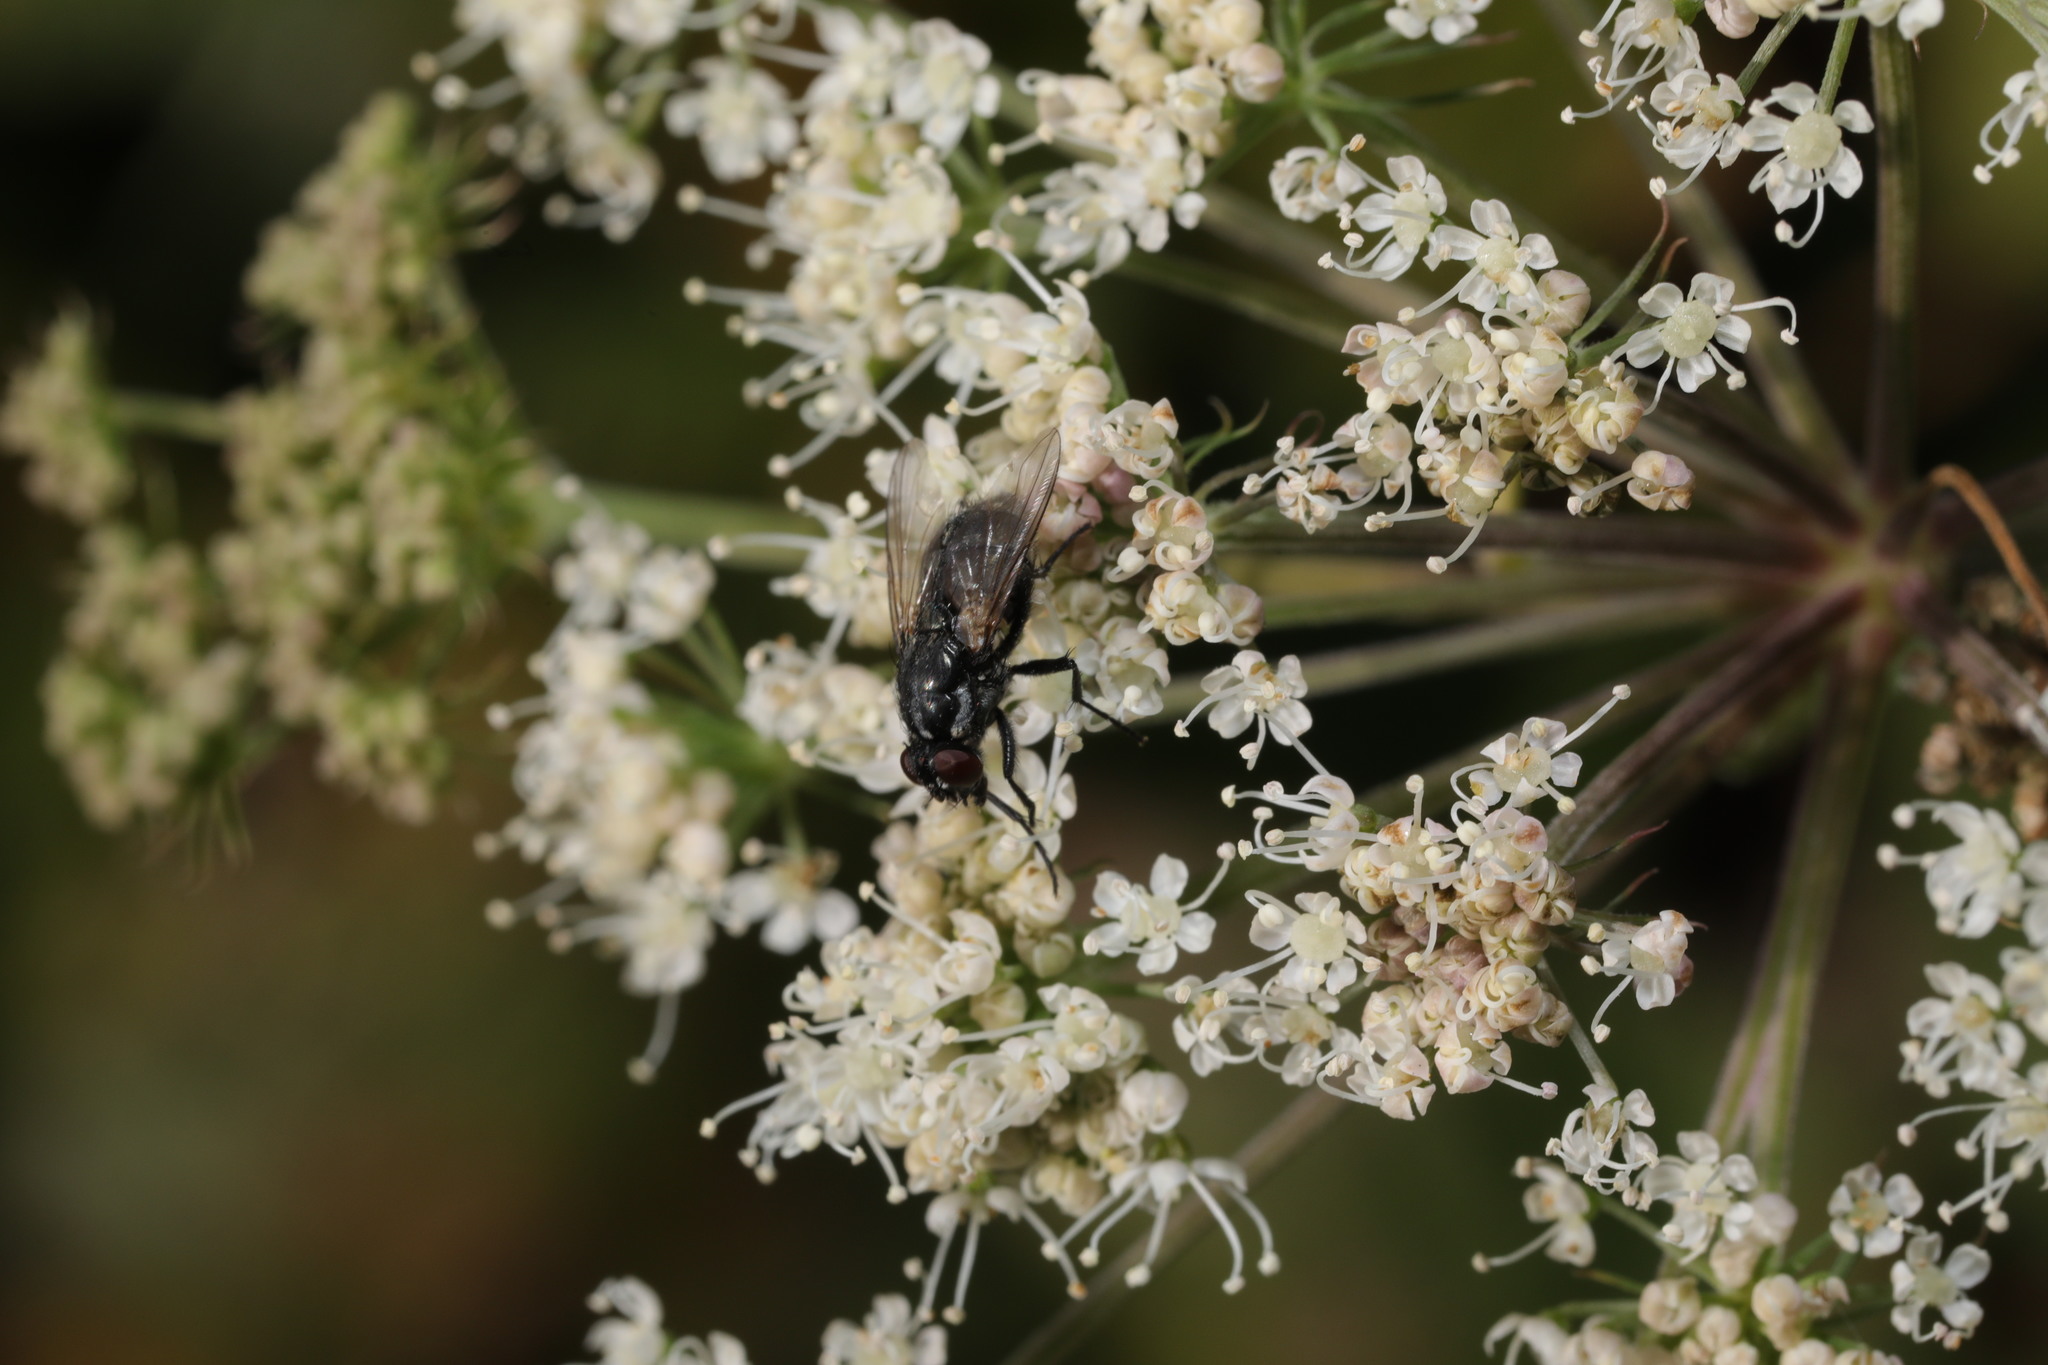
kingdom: Animalia
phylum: Arthropoda
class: Insecta
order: Diptera
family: Muscidae
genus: Morellia
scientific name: Morellia
